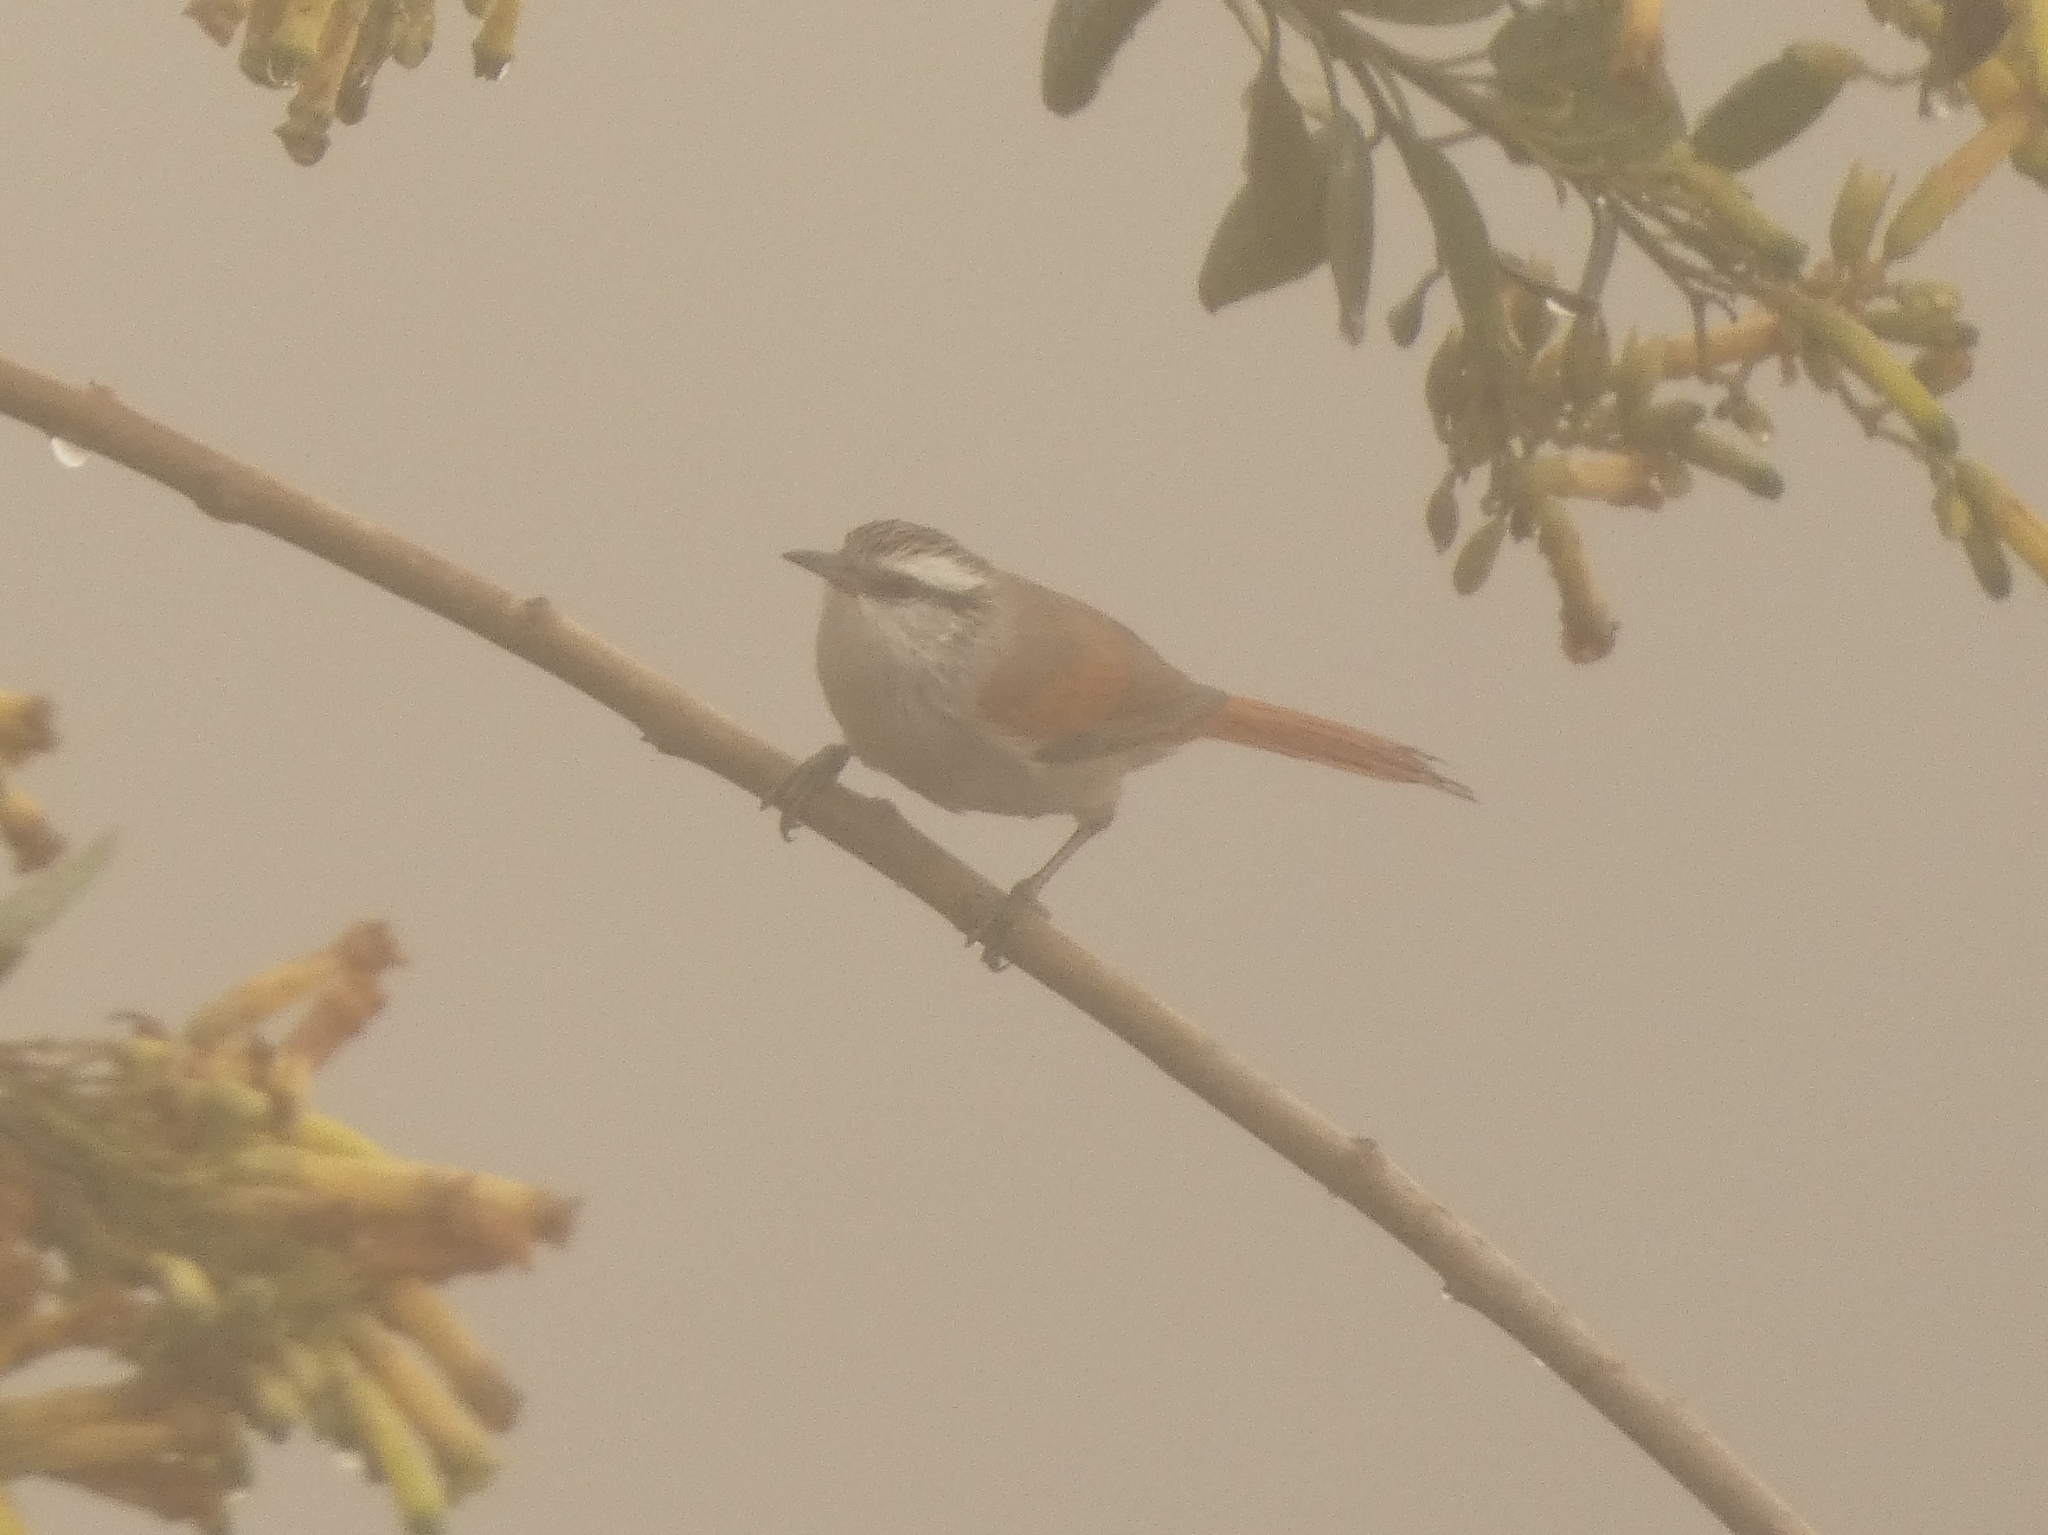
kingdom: Animalia
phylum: Chordata
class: Aves
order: Passeriformes
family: Furnariidae
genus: Cranioleuca
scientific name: Cranioleuca pyrrhophia
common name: Stripe-crowned spinetail
